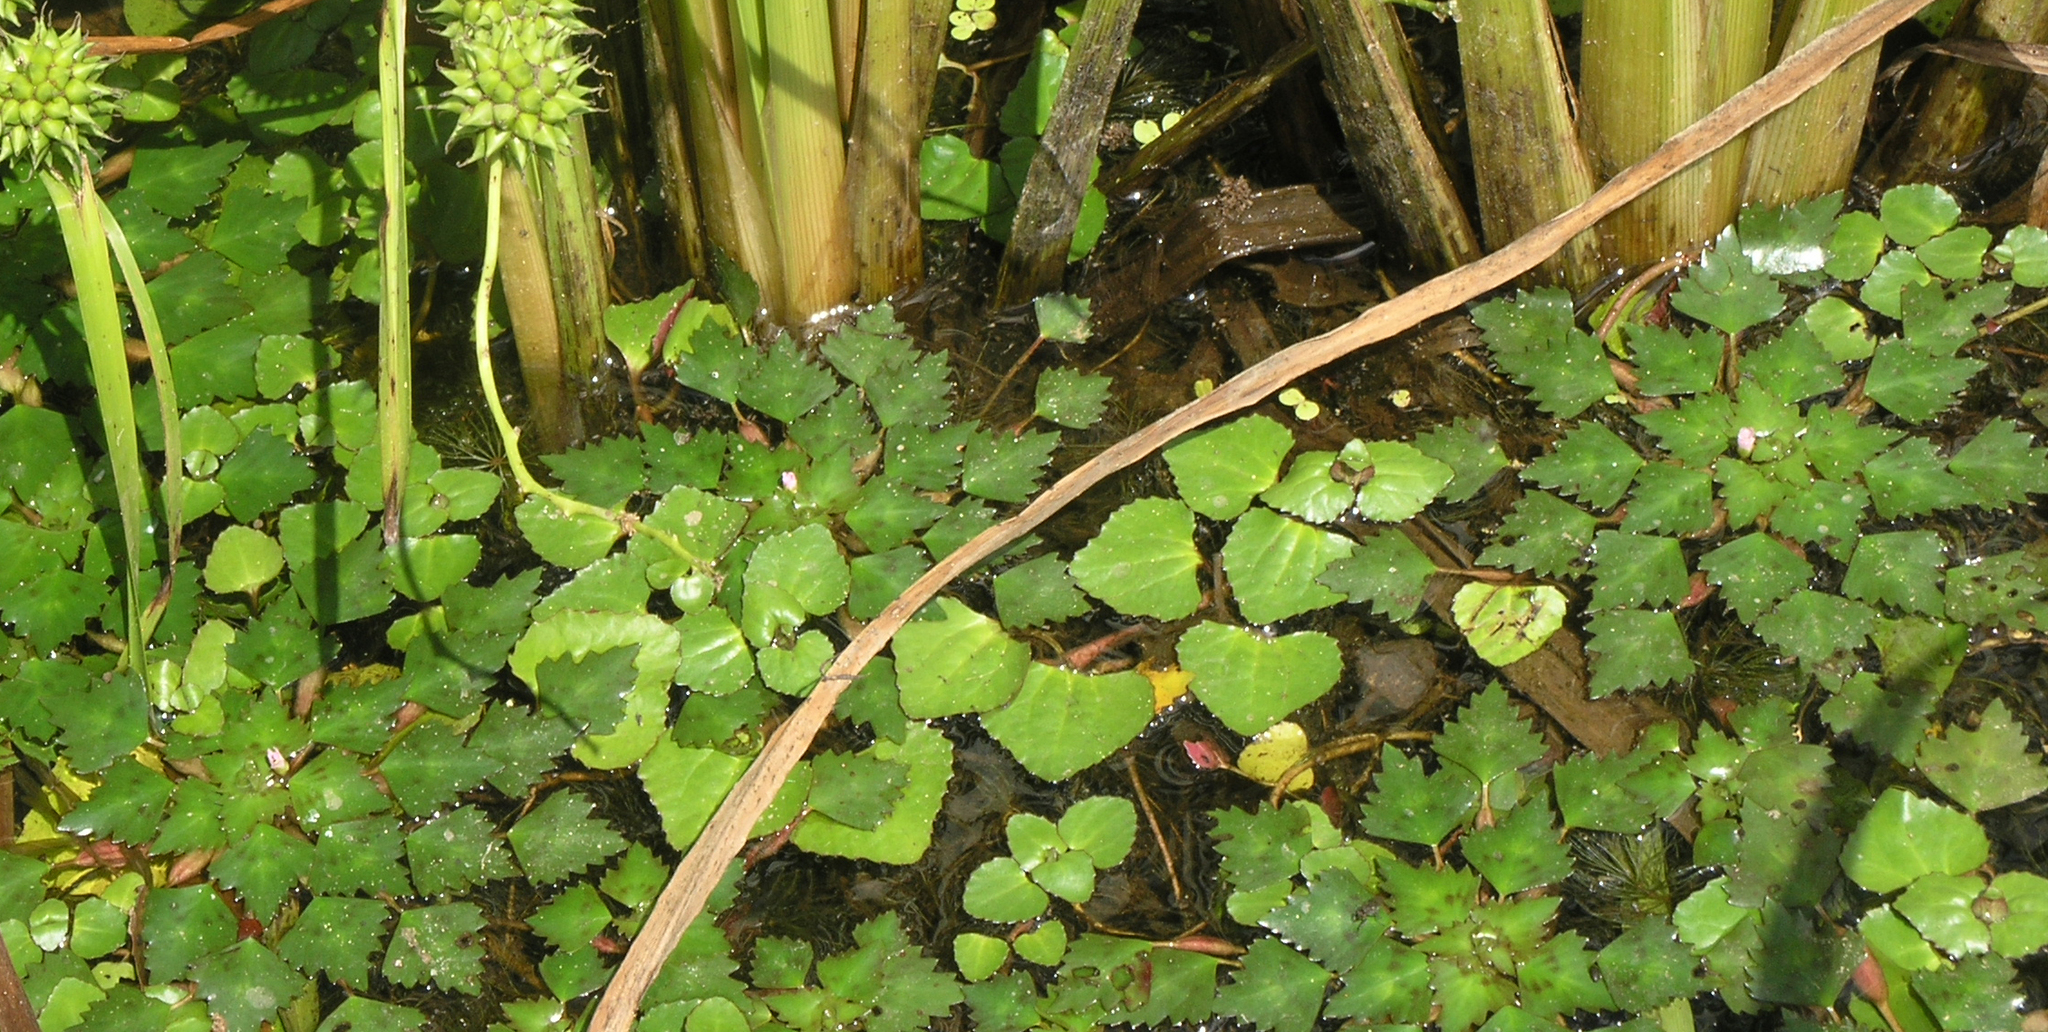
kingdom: Plantae
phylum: Tracheophyta
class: Magnoliopsida
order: Lamiales
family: Plantaginaceae
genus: Trapella
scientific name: Trapella sinensis
